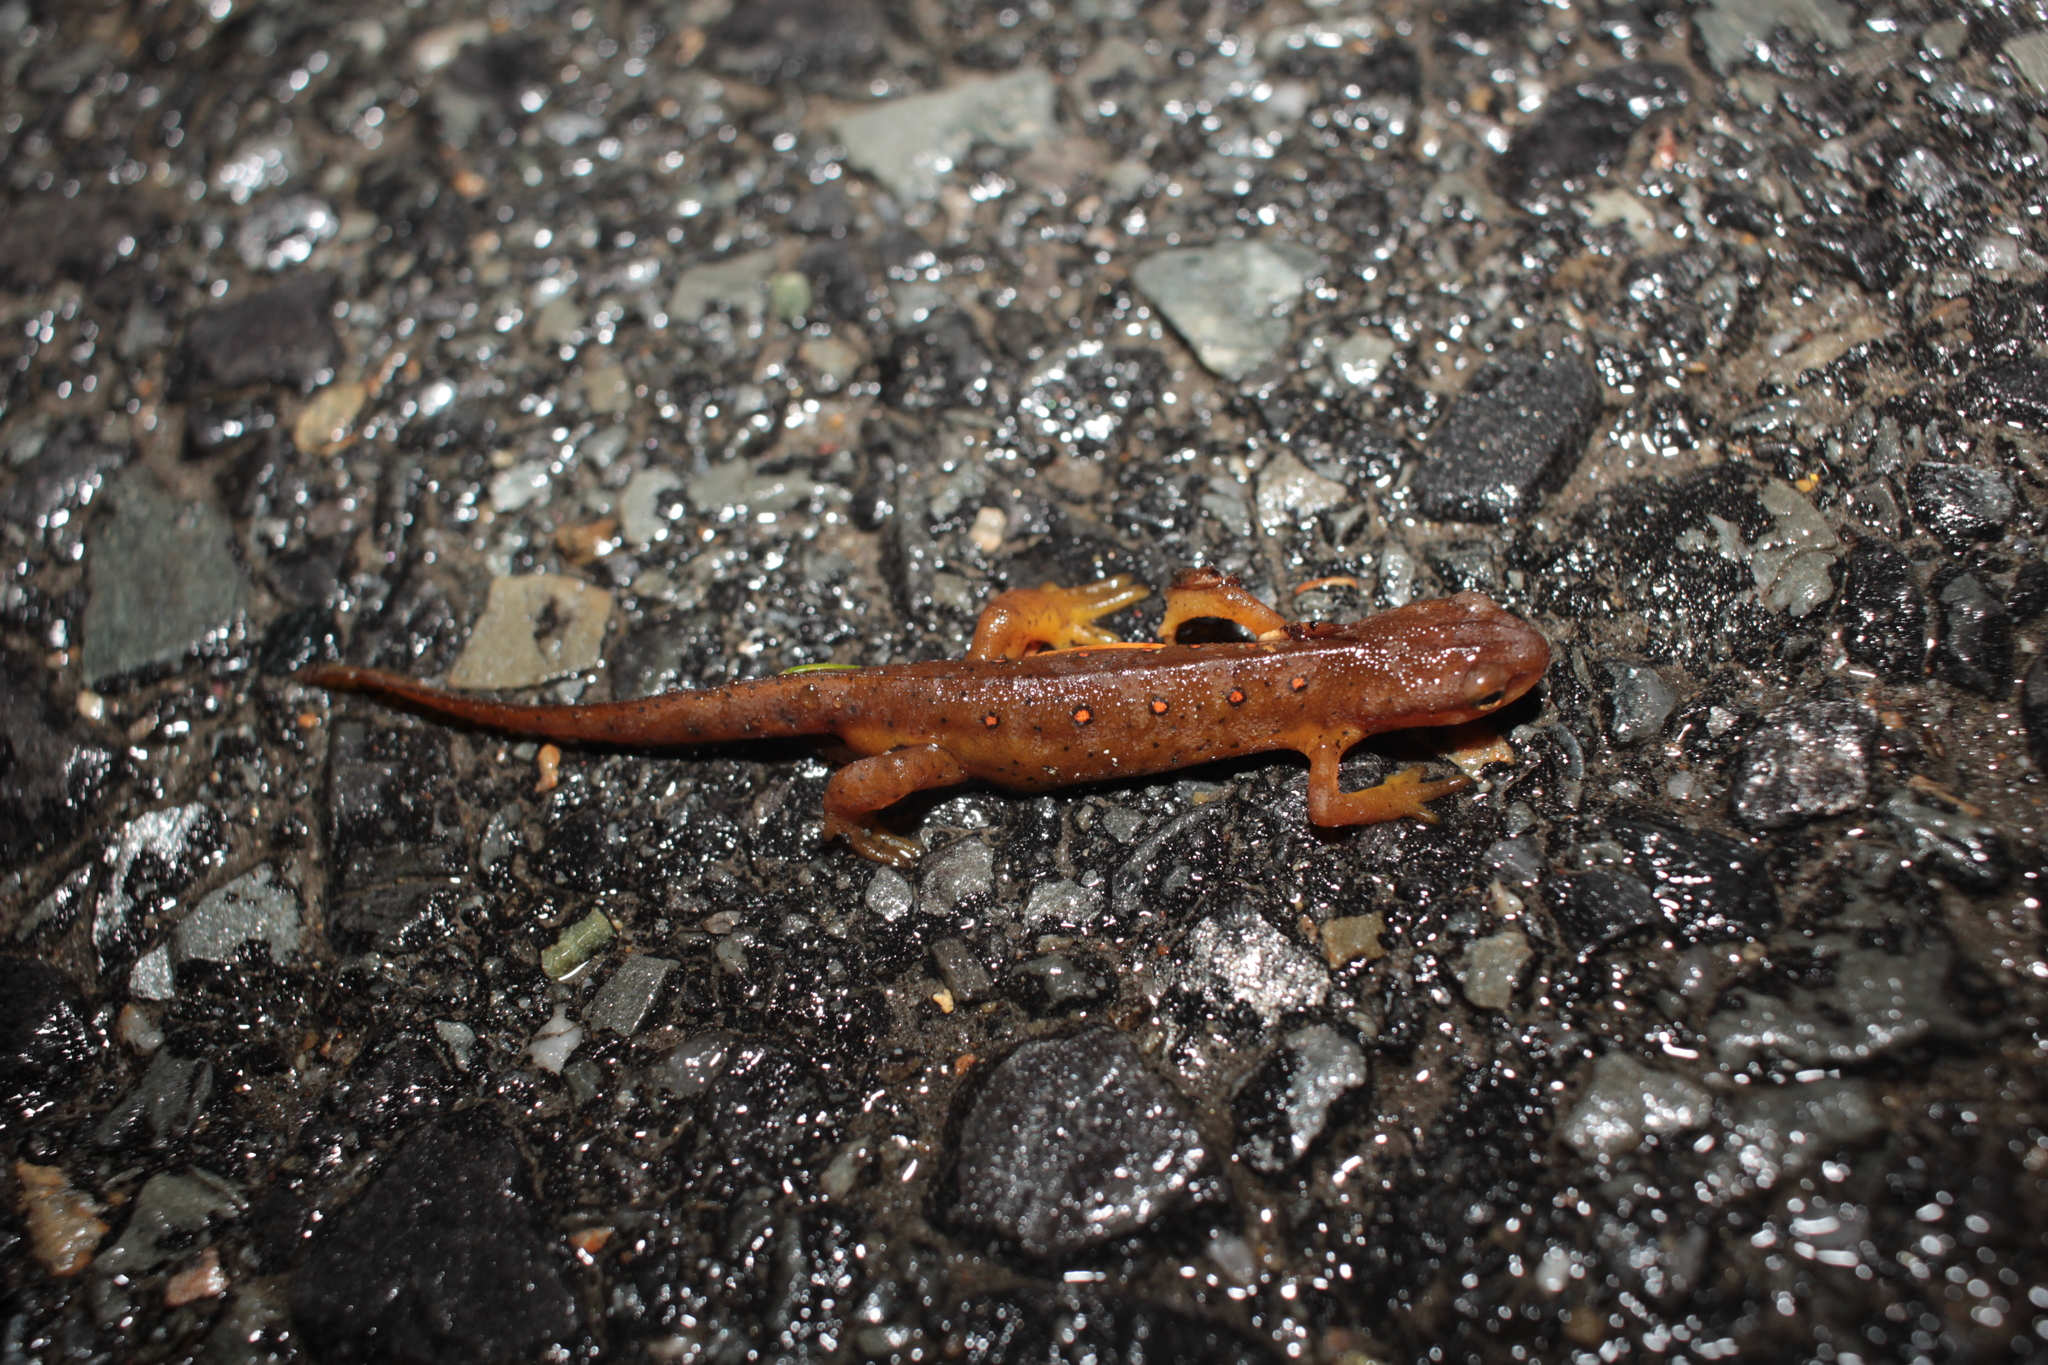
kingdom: Animalia
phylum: Chordata
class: Amphibia
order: Caudata
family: Salamandridae
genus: Notophthalmus
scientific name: Notophthalmus viridescens
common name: Eastern newt
